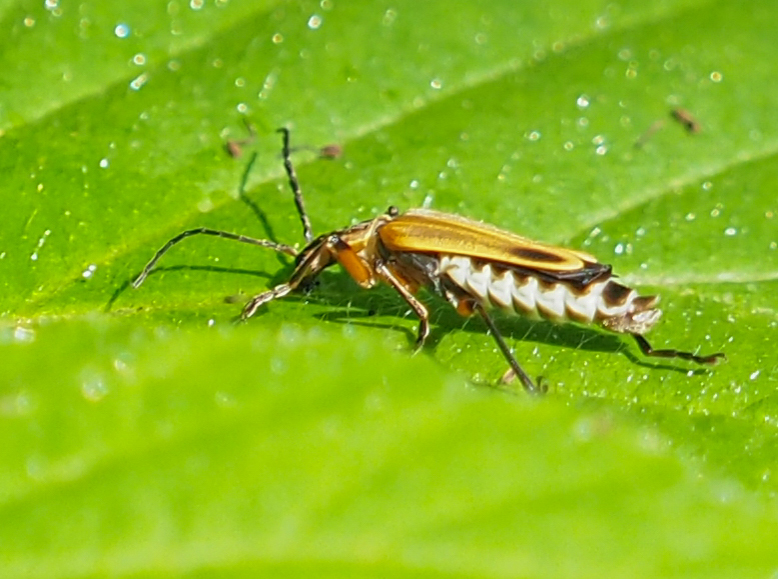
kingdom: Animalia
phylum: Arthropoda
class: Insecta
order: Coleoptera
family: Cantharidae
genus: Chauliognathus
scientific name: Chauliognathus marginatus
